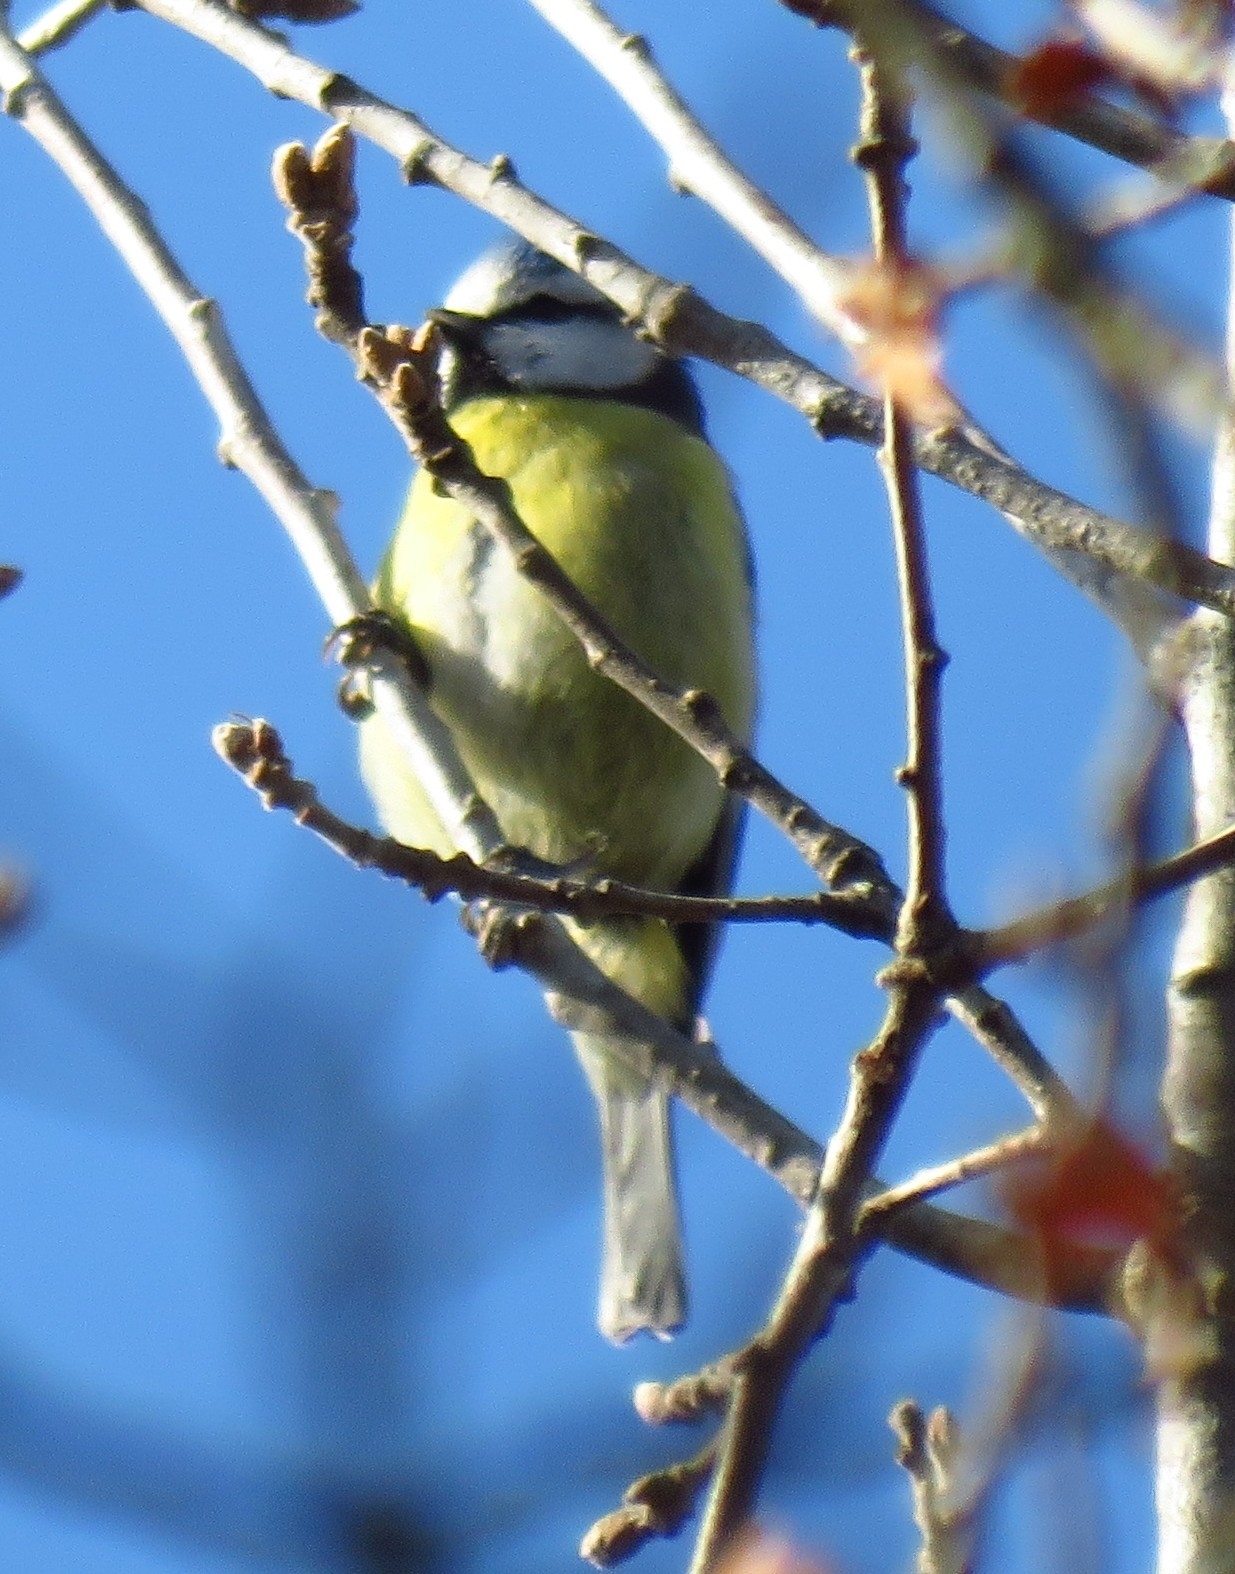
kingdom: Animalia
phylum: Chordata
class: Aves
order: Passeriformes
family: Paridae
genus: Cyanistes
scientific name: Cyanistes caeruleus
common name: Eurasian blue tit
